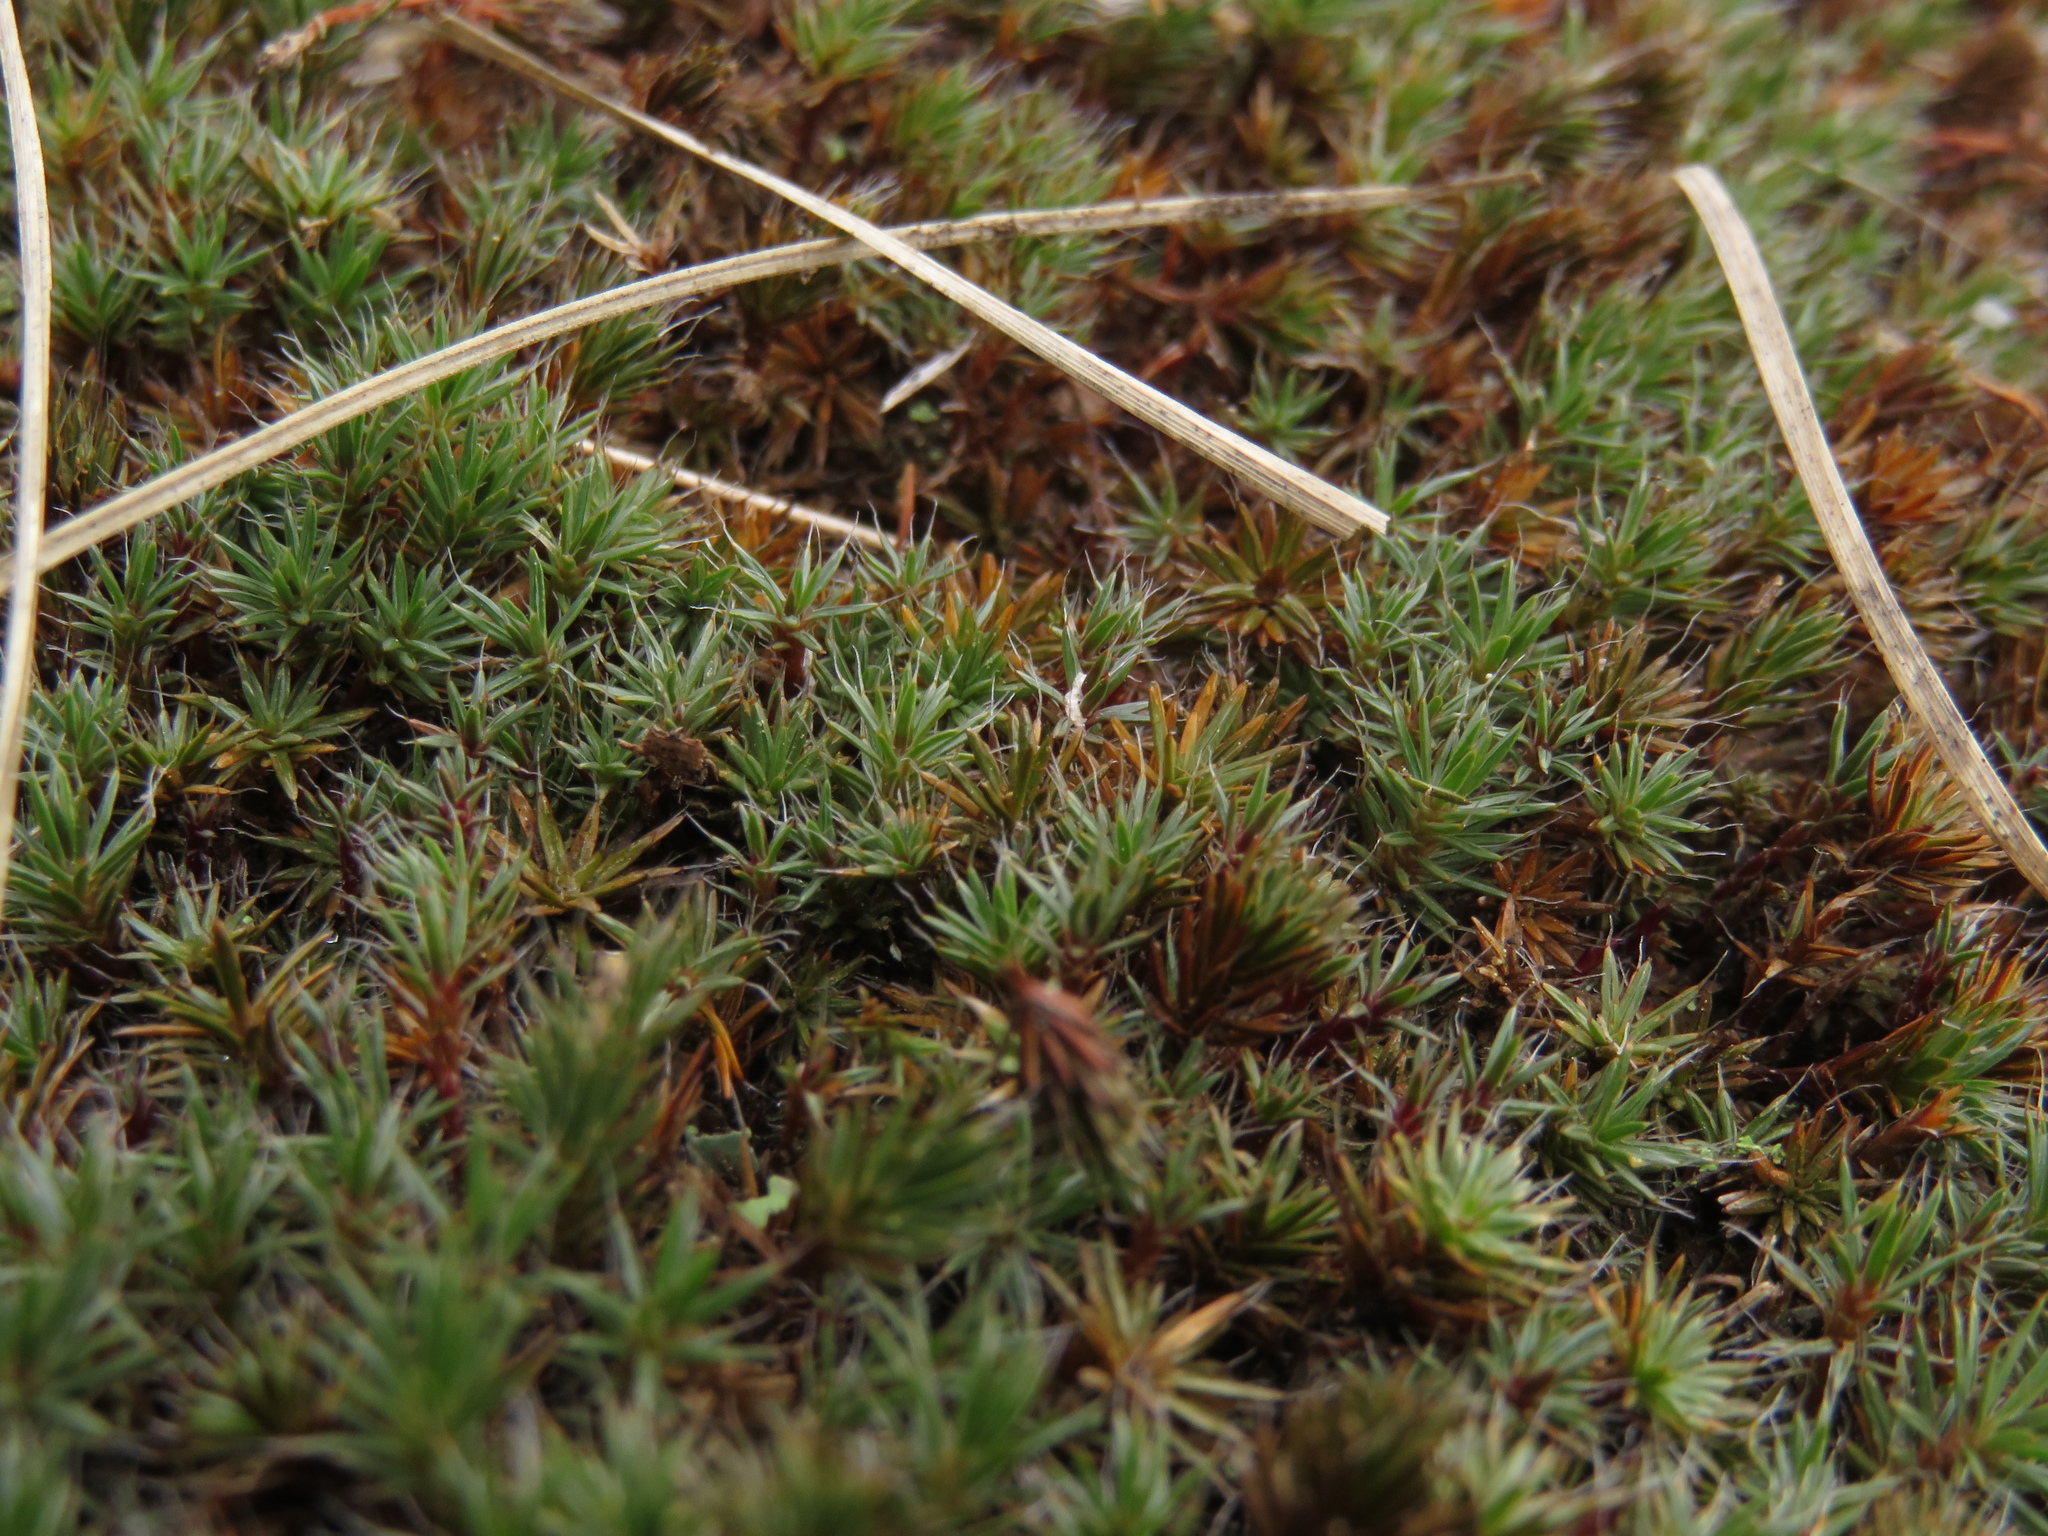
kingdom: Plantae
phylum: Bryophyta
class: Polytrichopsida
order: Polytrichales
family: Polytrichaceae
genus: Polytrichum
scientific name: Polytrichum piliferum
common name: Bristly haircap
